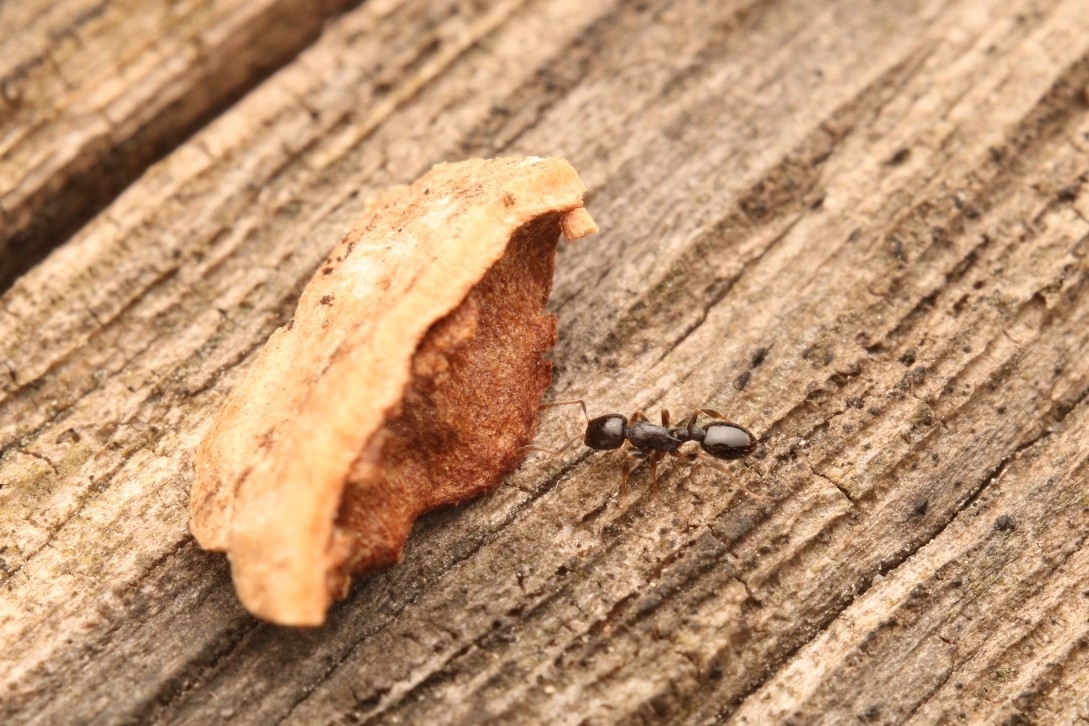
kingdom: Animalia
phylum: Arthropoda
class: Insecta
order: Hymenoptera
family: Formicidae
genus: Temnothorax
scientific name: Temnothorax longispinosus
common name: Long-spined acorn ant
